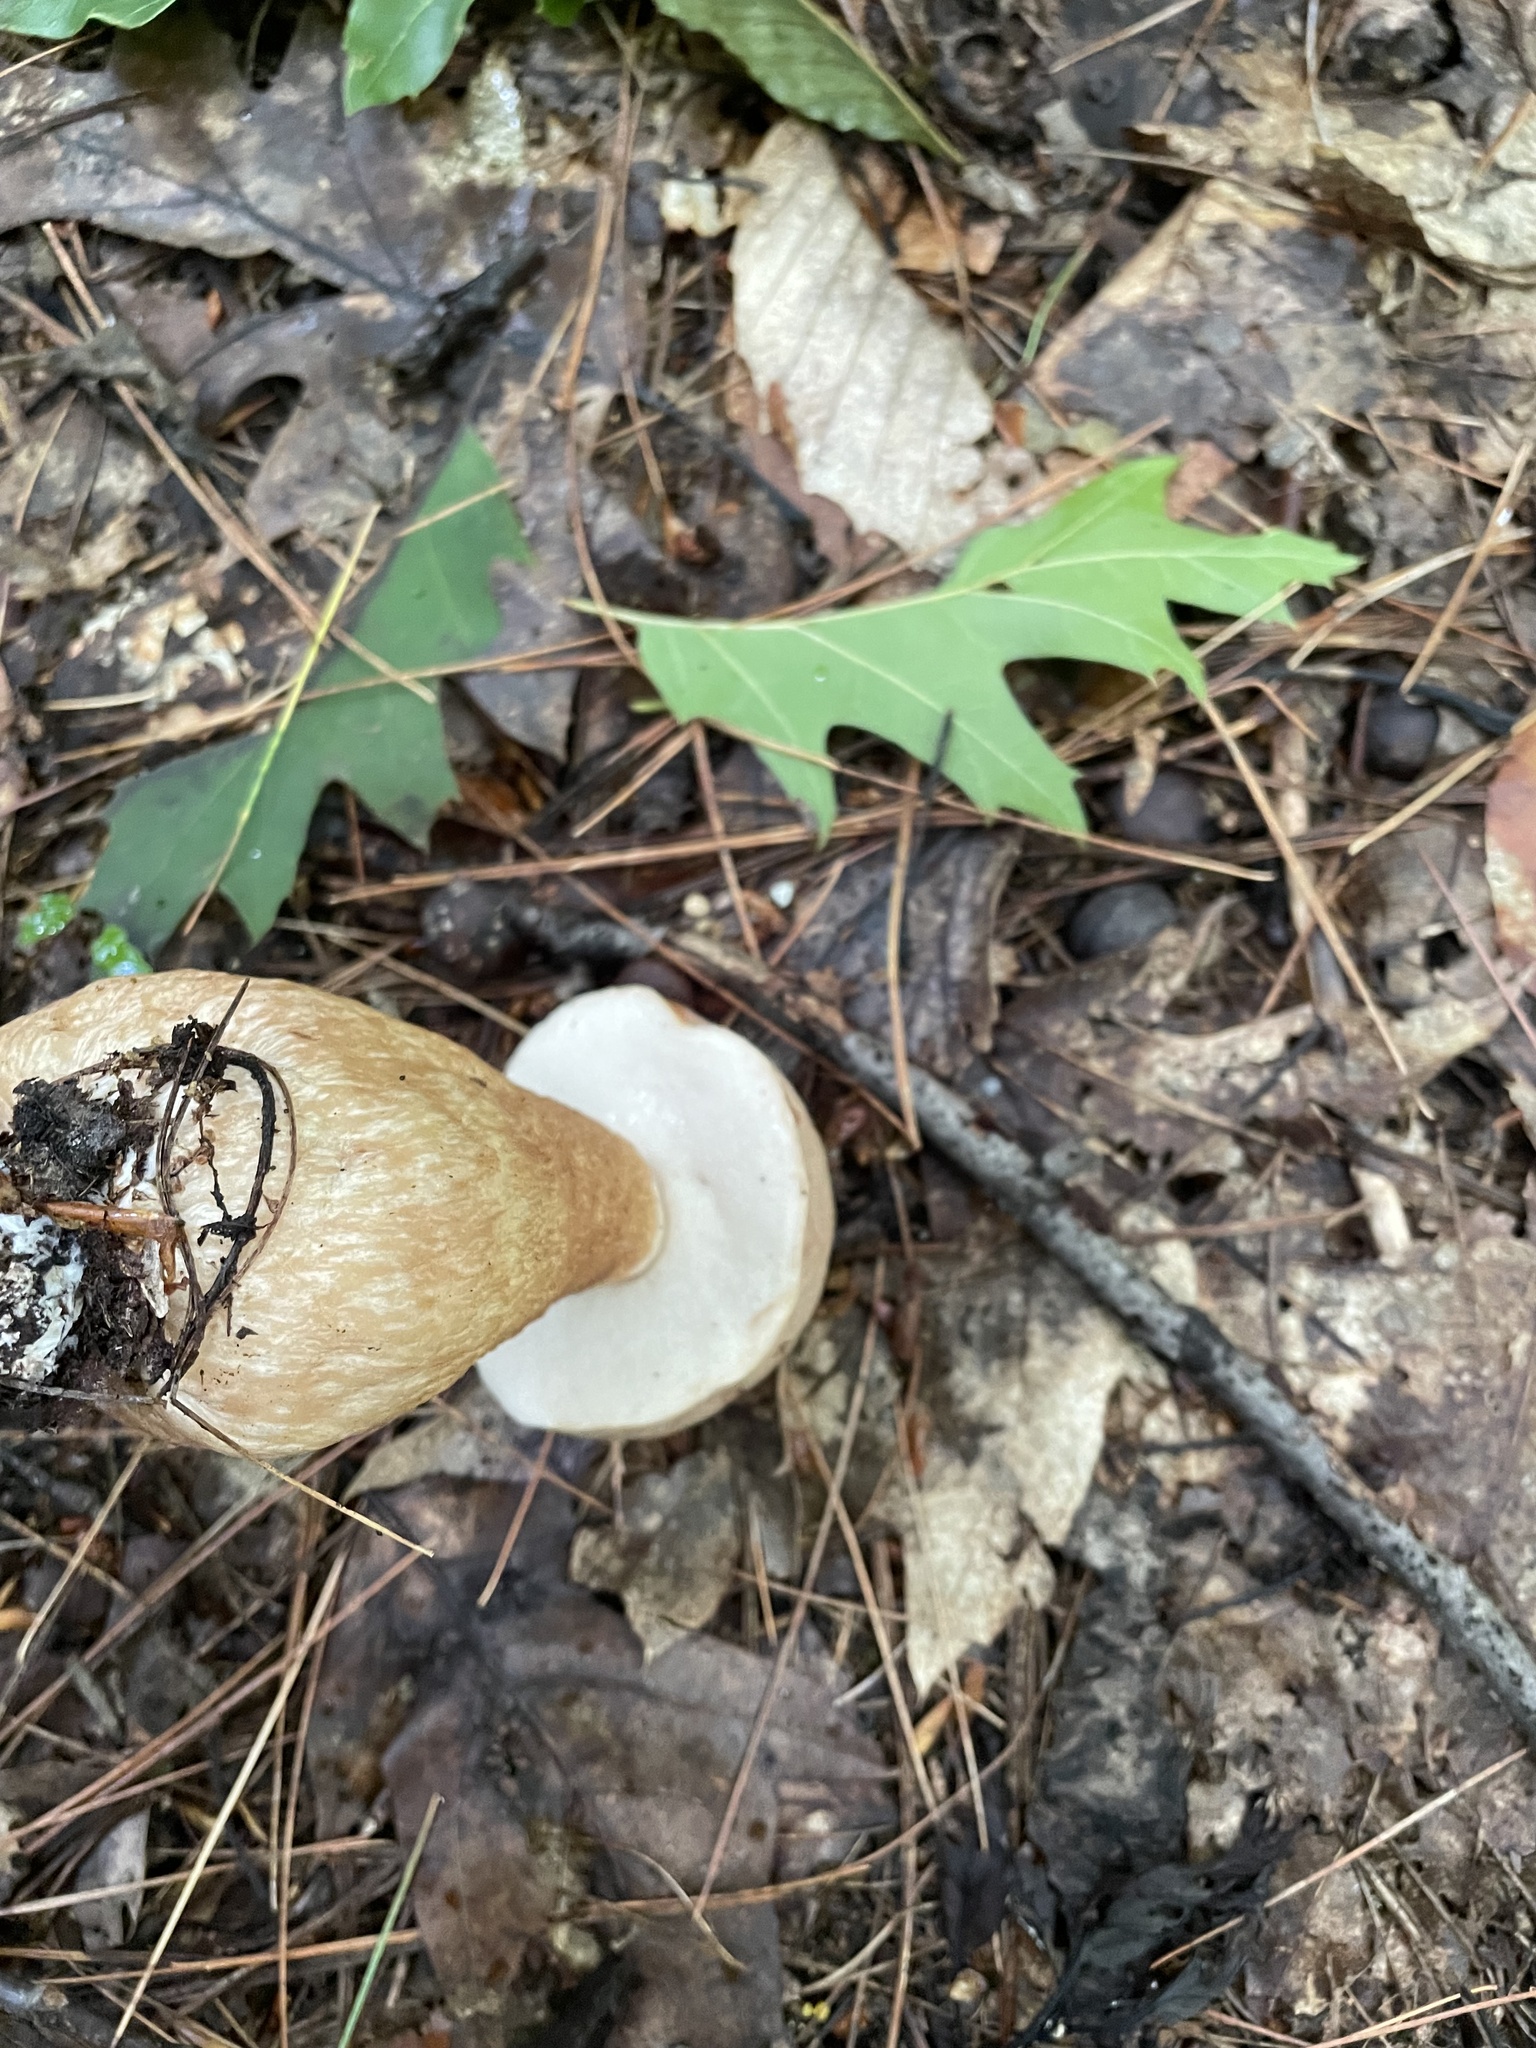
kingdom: Fungi
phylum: Basidiomycota
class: Agaricomycetes
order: Boletales
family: Boletaceae
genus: Tylopilus
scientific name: Tylopilus felleus
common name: Bitter bolete
